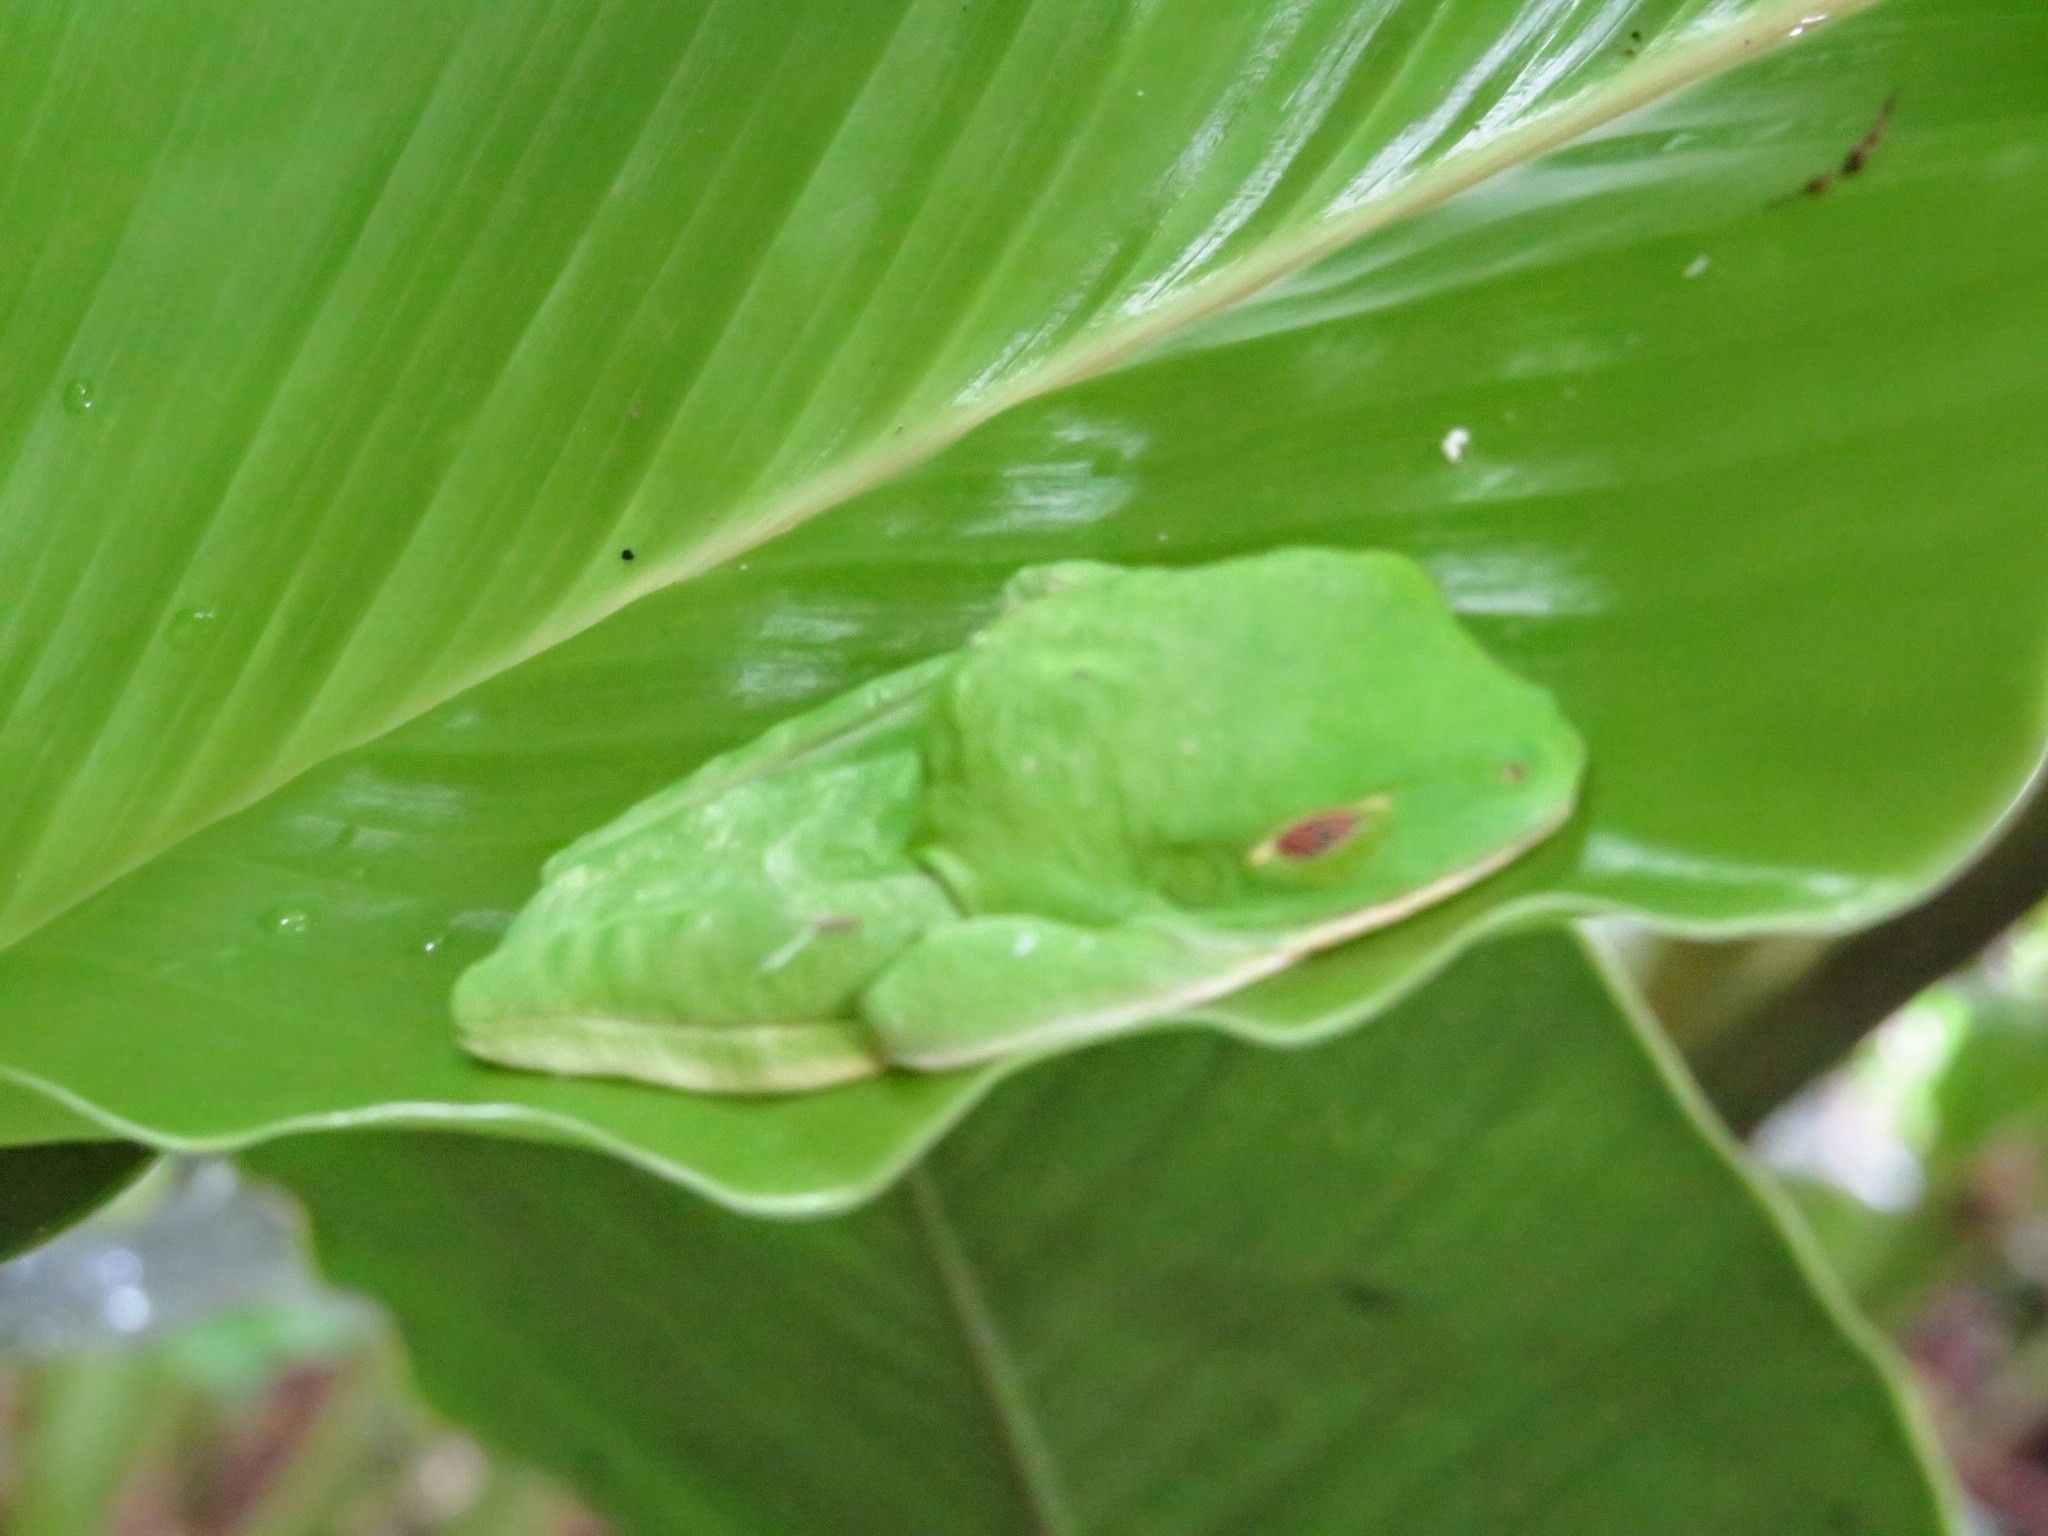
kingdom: Animalia
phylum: Chordata
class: Amphibia
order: Anura
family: Phyllomedusidae
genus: Agalychnis
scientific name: Agalychnis callidryas
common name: Red-eyed treefrog
